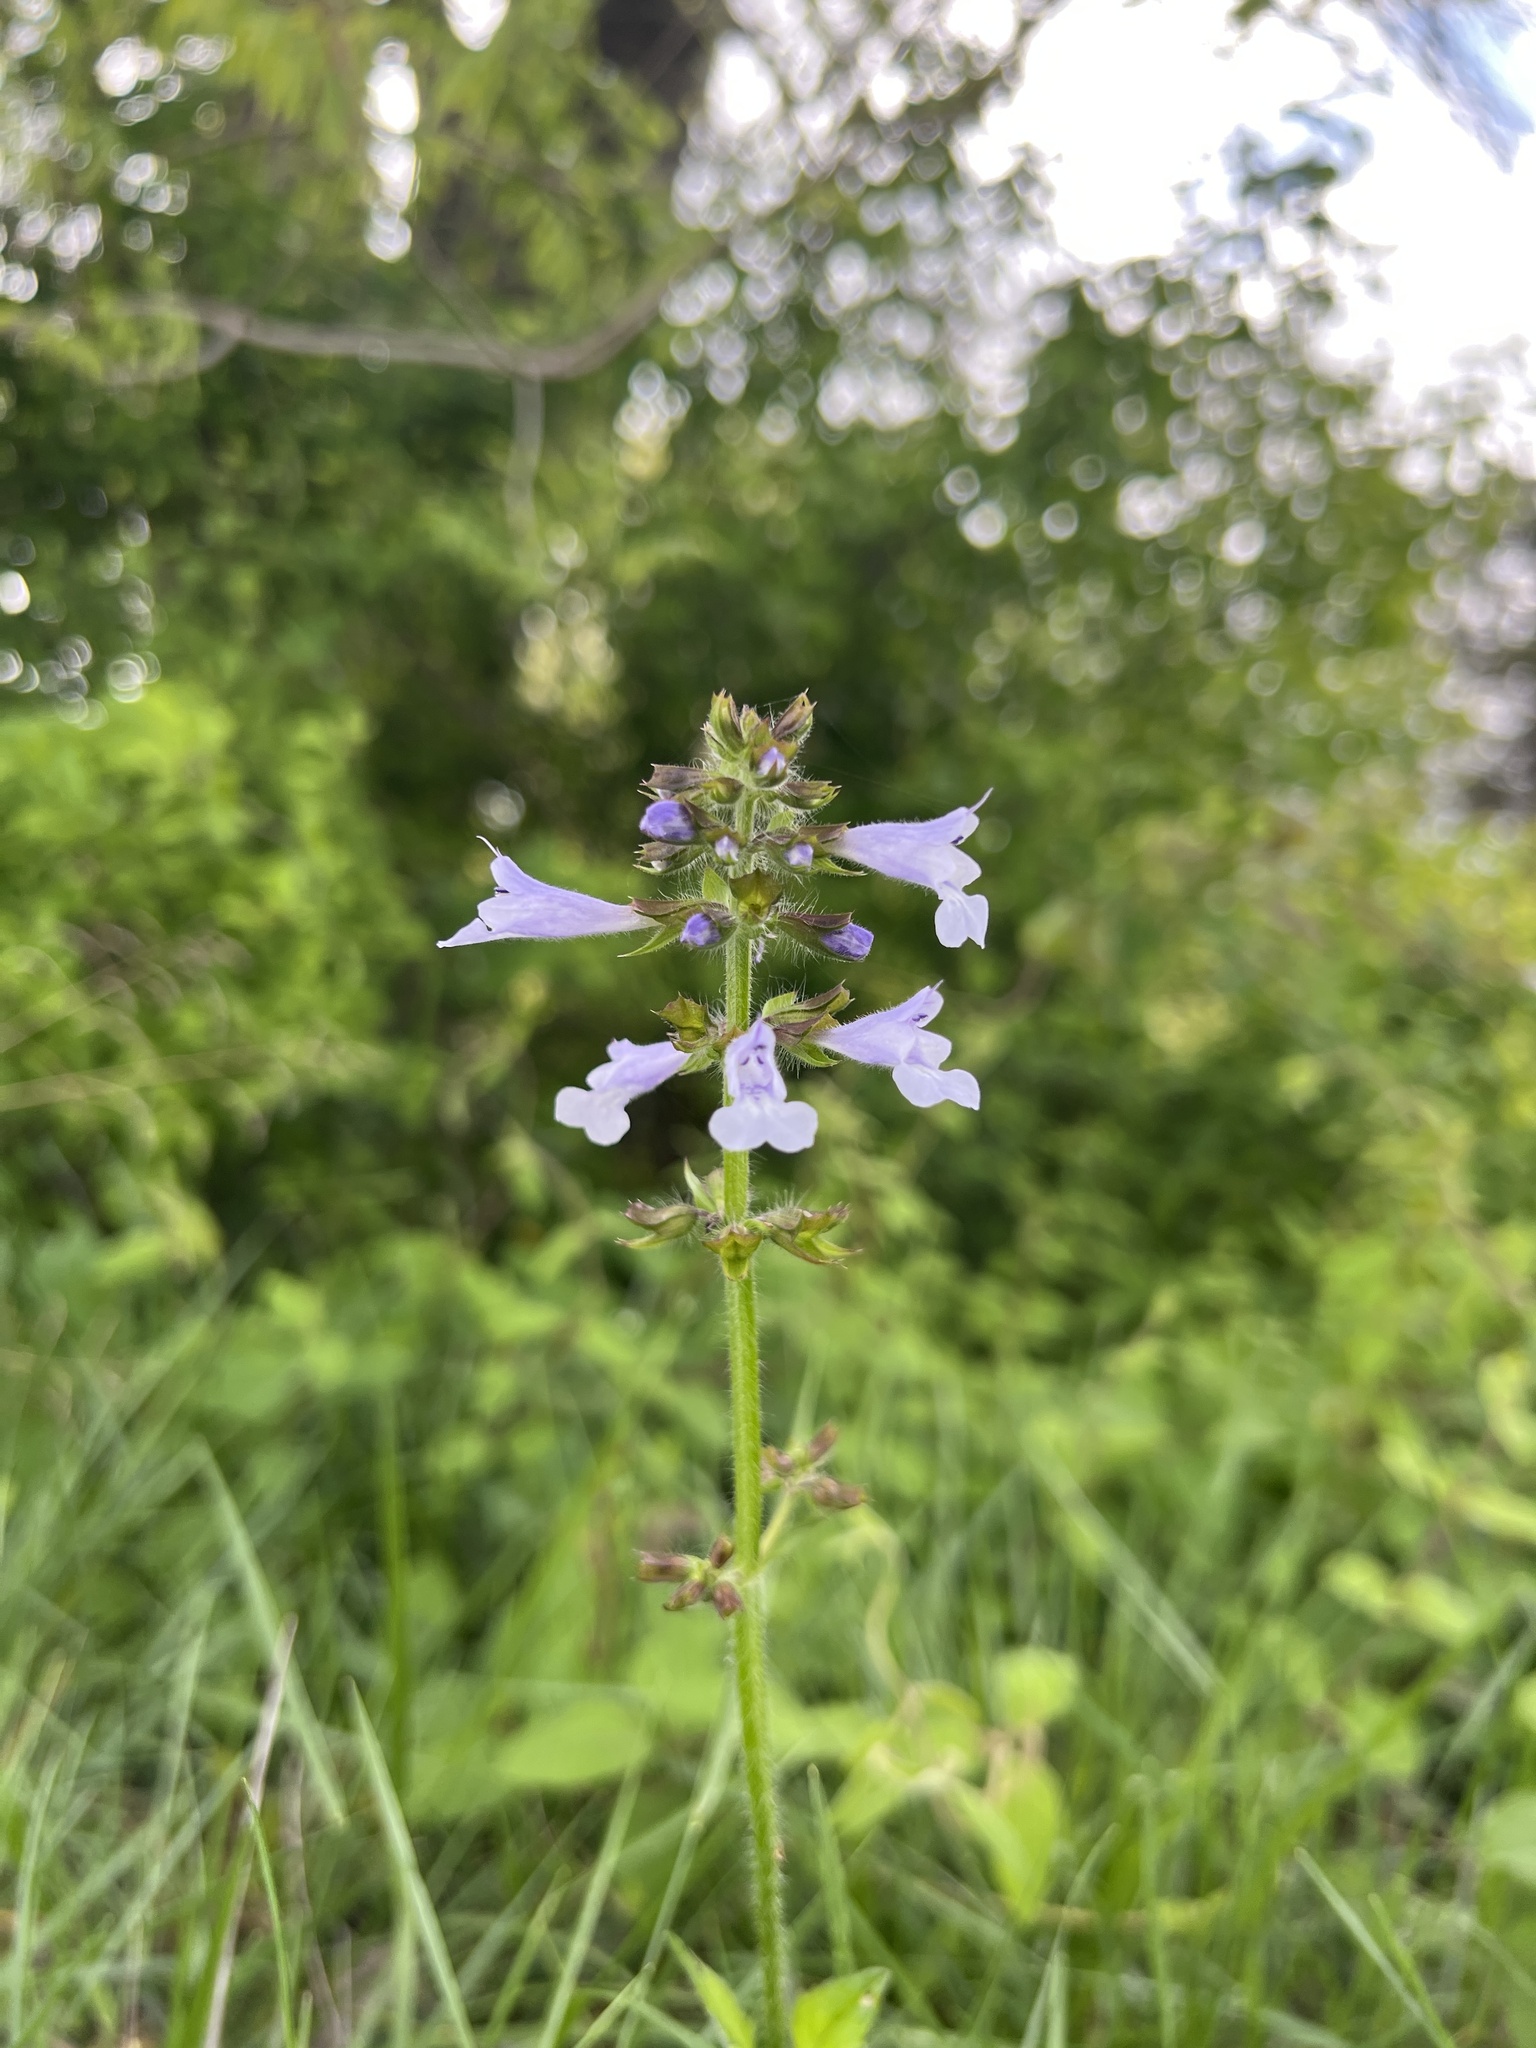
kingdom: Plantae
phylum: Tracheophyta
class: Magnoliopsida
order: Lamiales
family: Lamiaceae
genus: Salvia
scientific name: Salvia lyrata
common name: Cancerweed
